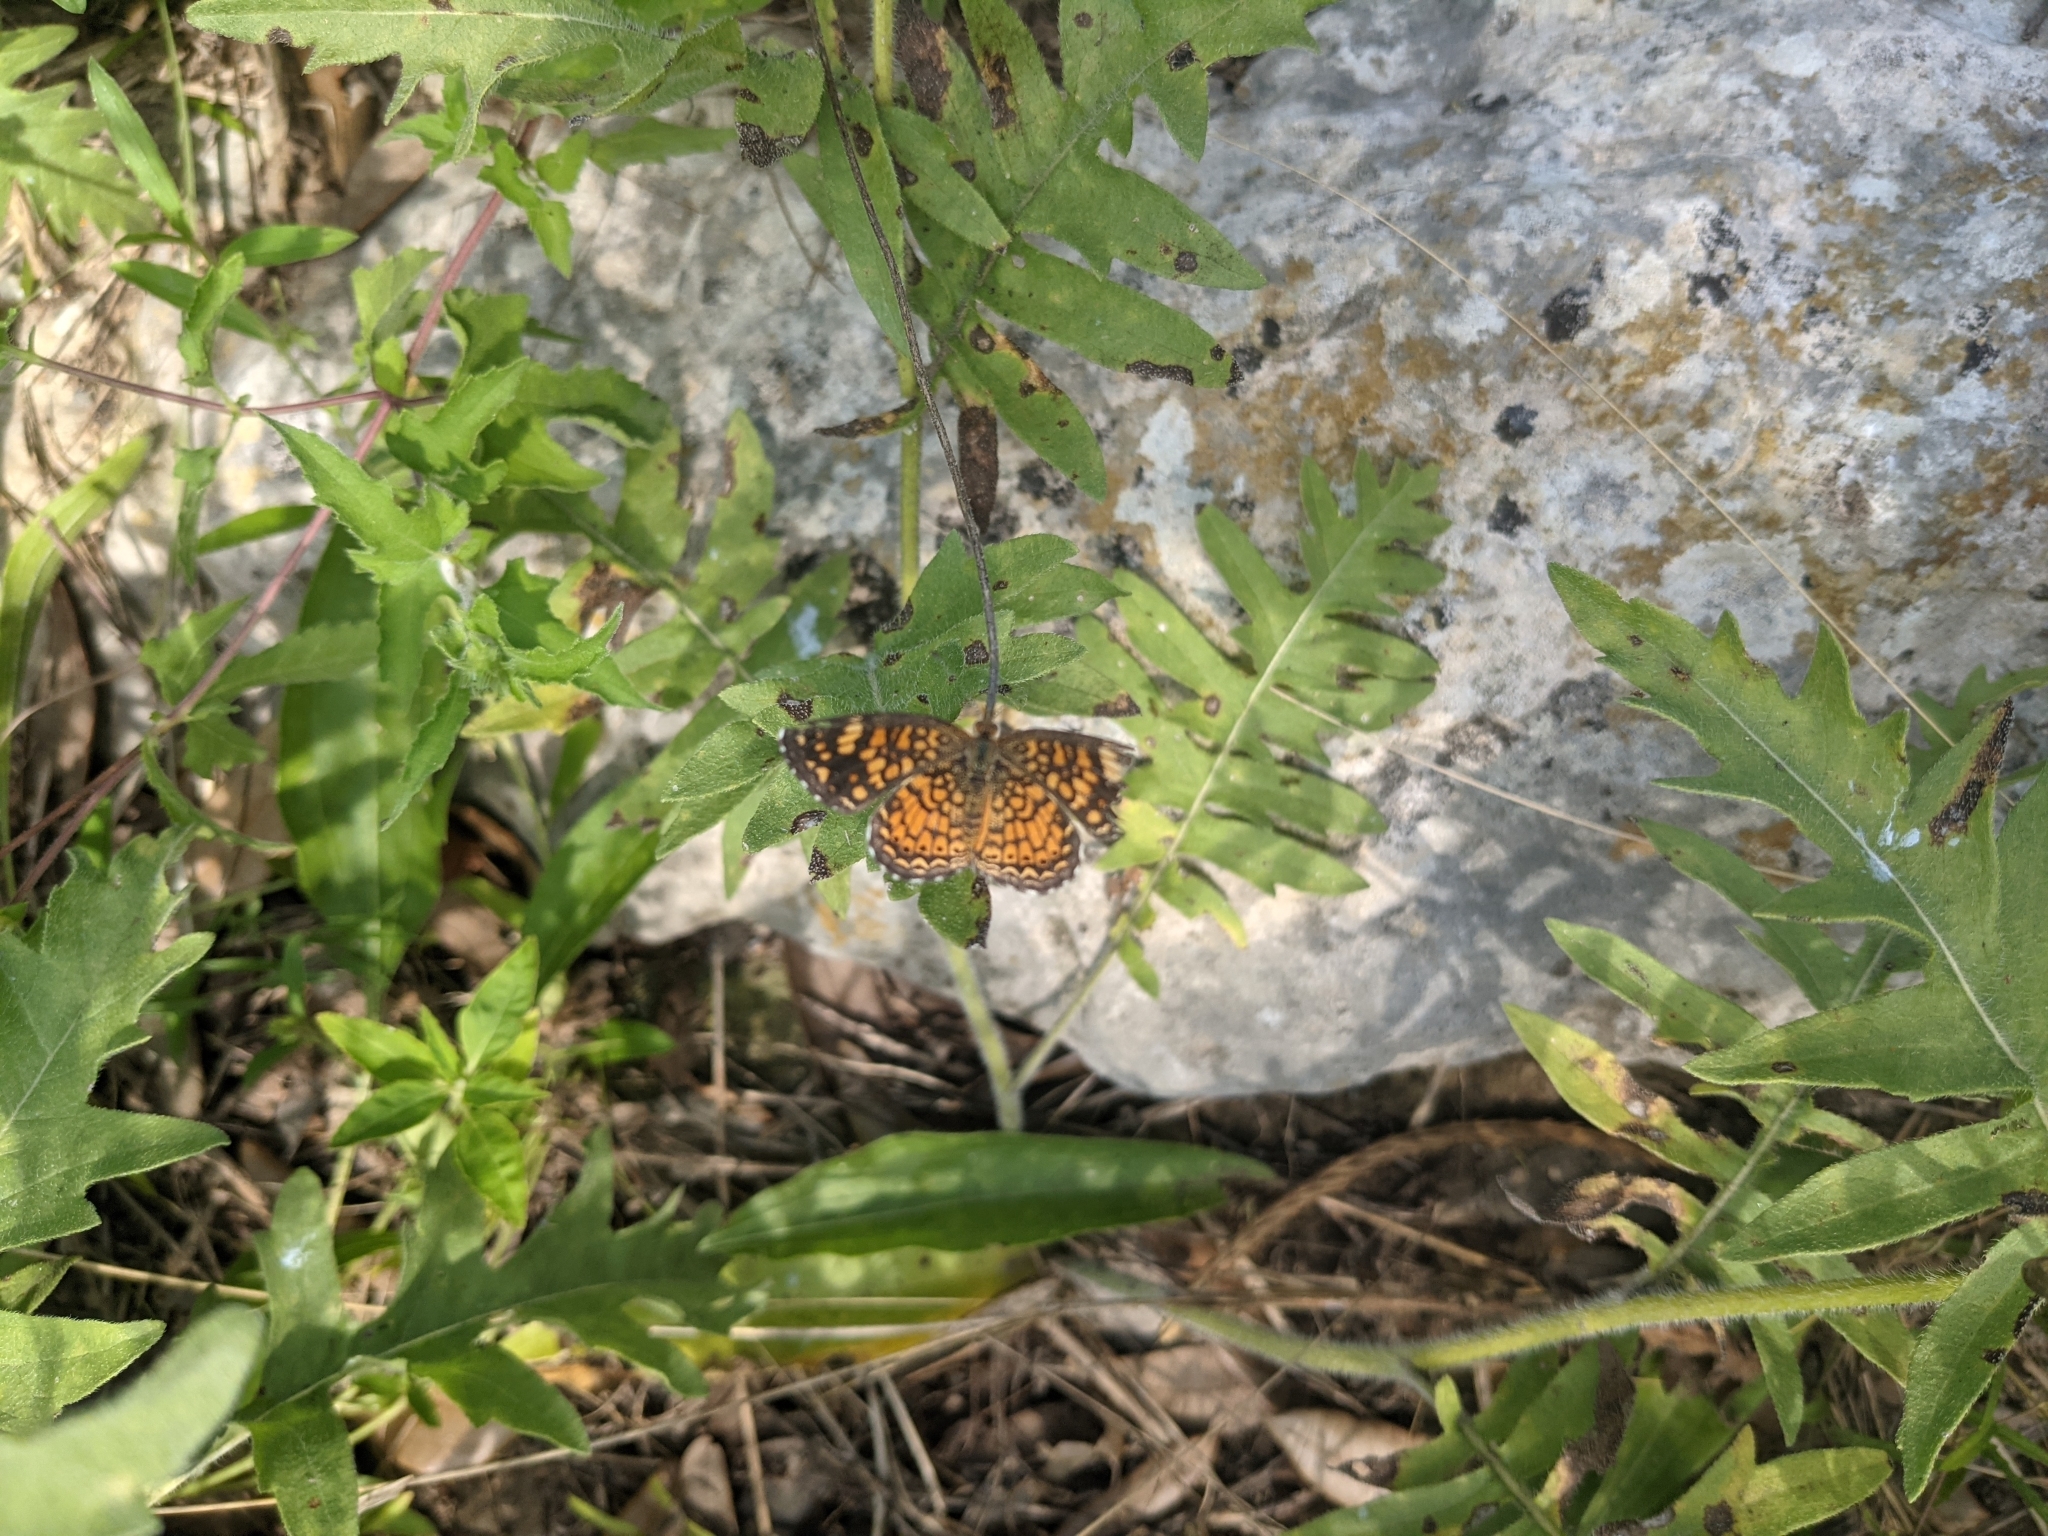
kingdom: Animalia
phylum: Arthropoda
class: Insecta
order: Lepidoptera
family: Nymphalidae
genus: Phyciodes
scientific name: Phyciodes vesta
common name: Vesta crescent
